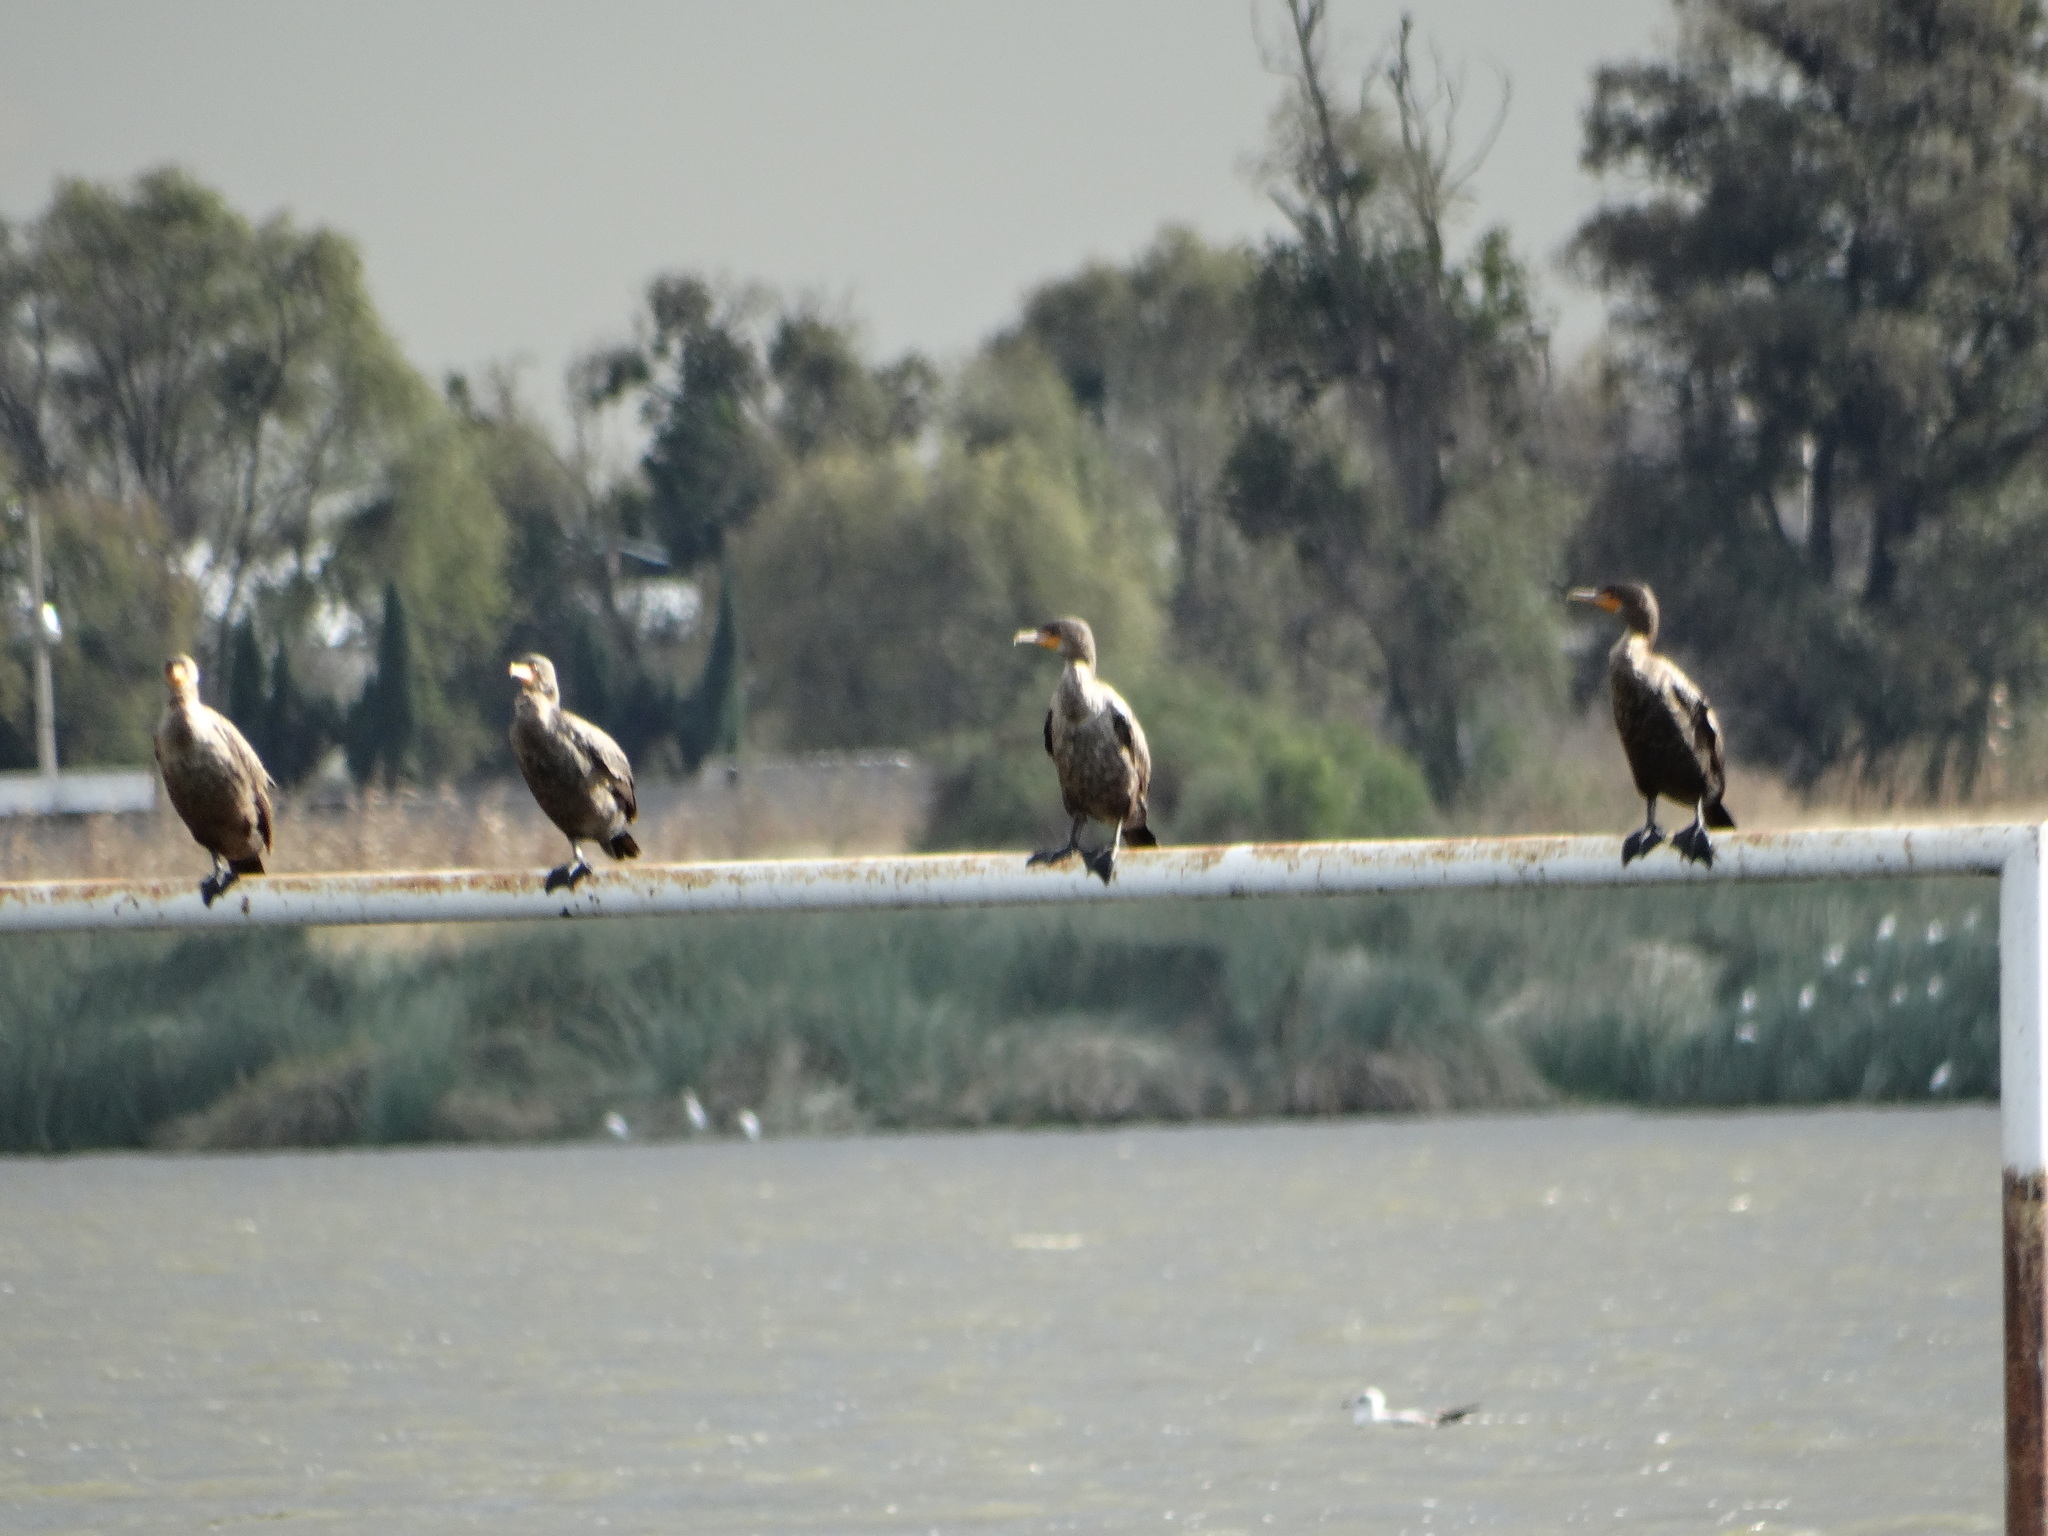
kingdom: Animalia
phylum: Chordata
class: Aves
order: Suliformes
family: Phalacrocoracidae
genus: Phalacrocorax
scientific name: Phalacrocorax auritus
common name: Double-crested cormorant
